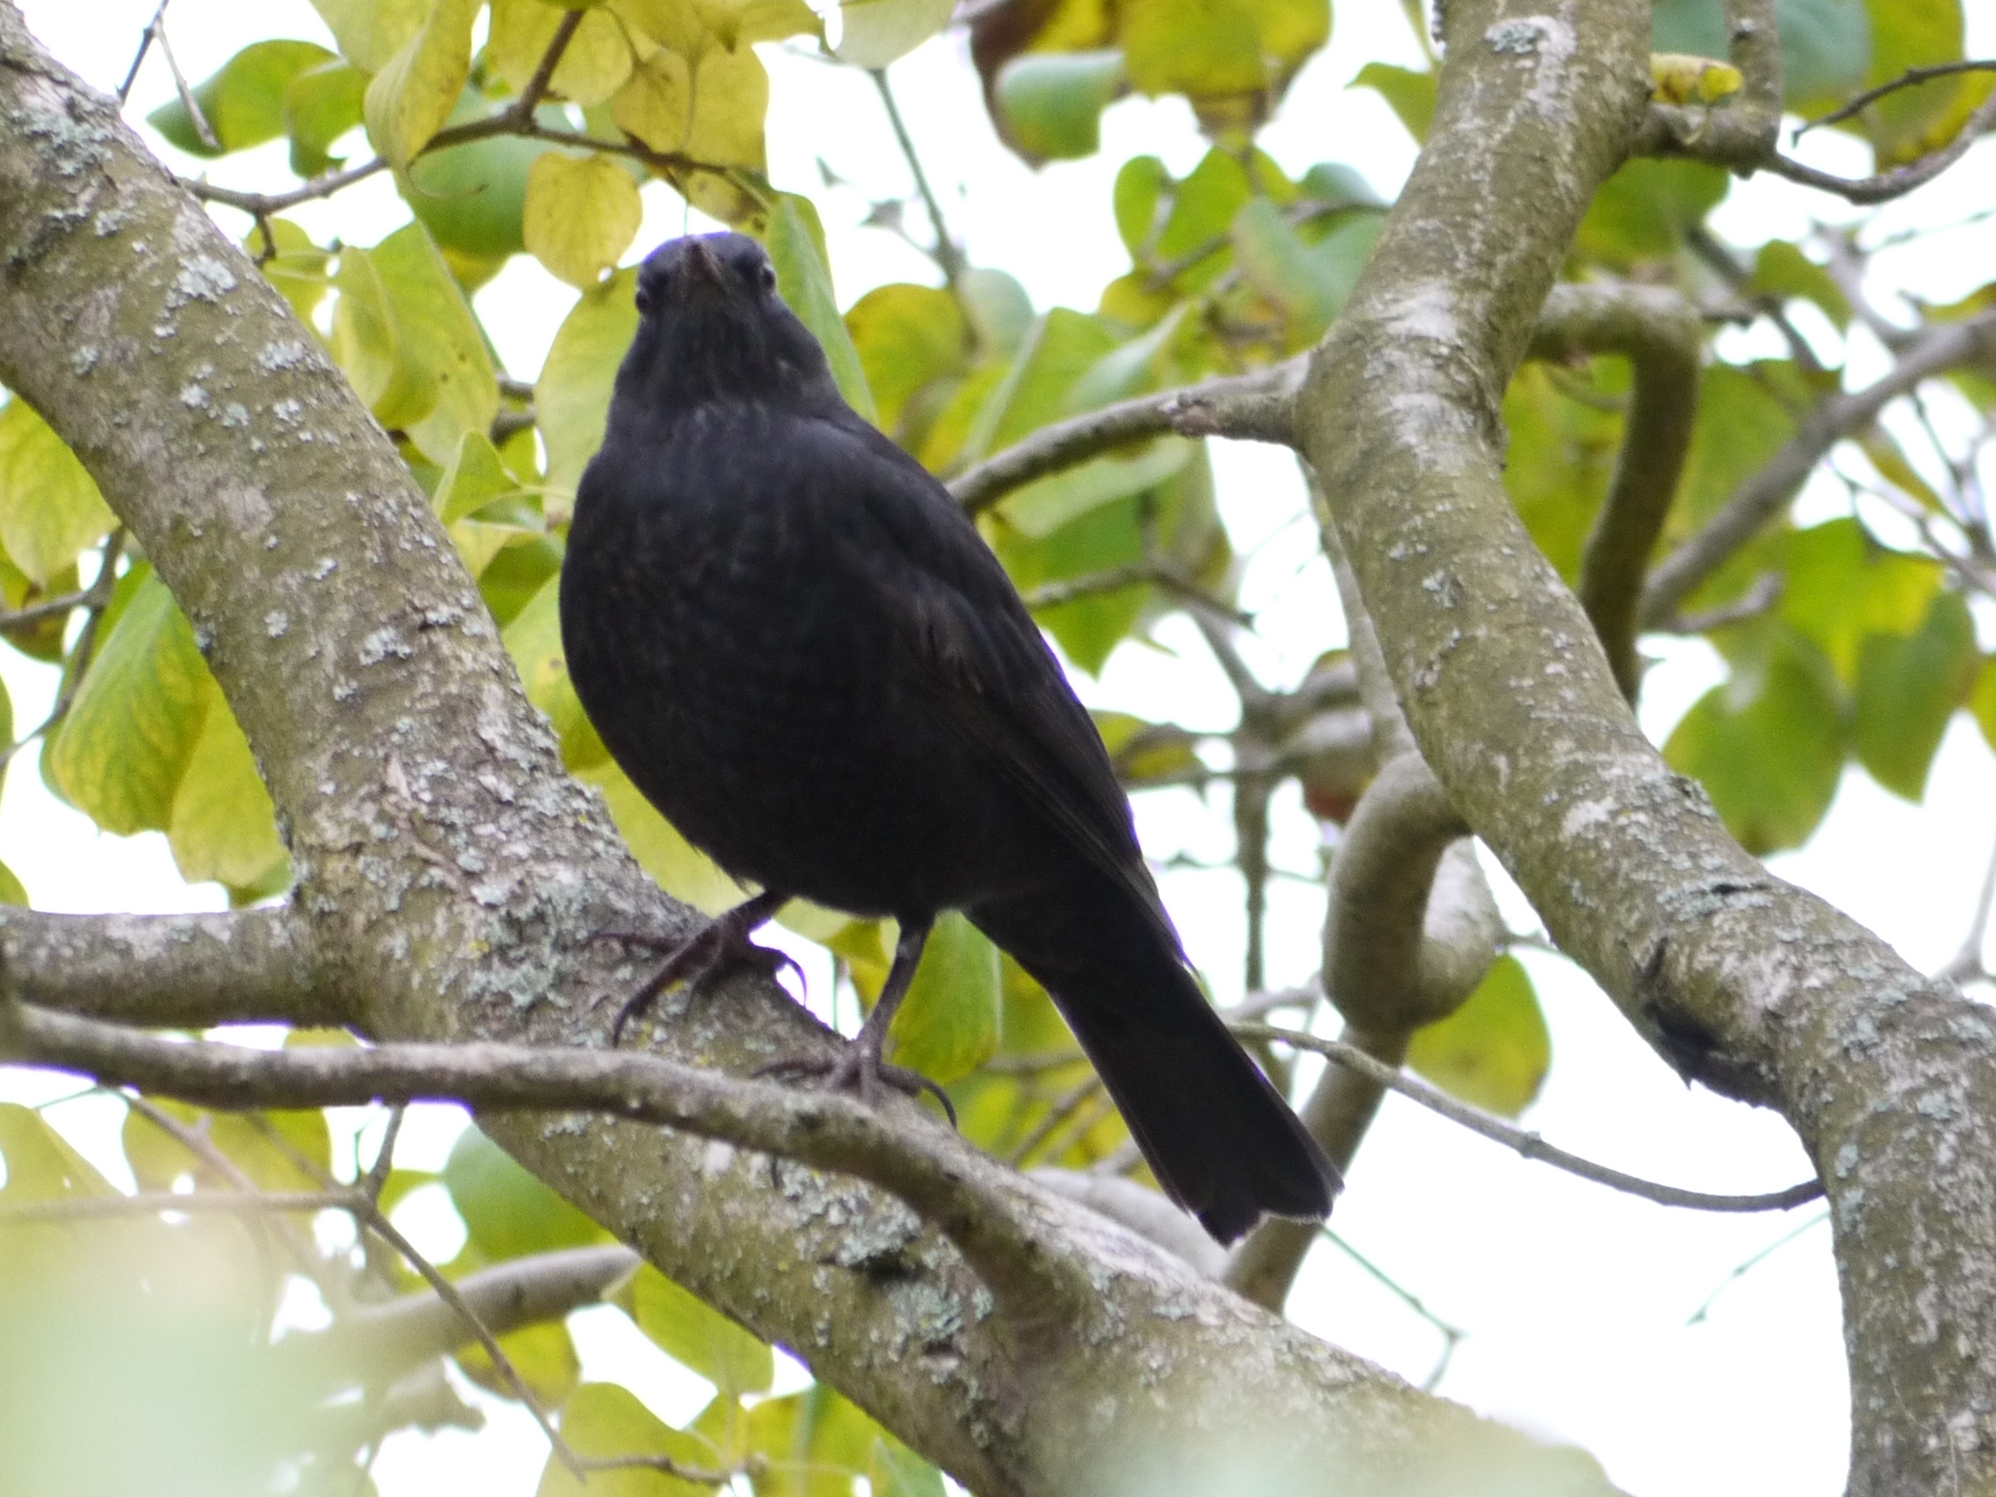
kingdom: Animalia
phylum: Chordata
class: Aves
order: Passeriformes
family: Turdidae
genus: Turdus
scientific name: Turdus merula
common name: Common blackbird
